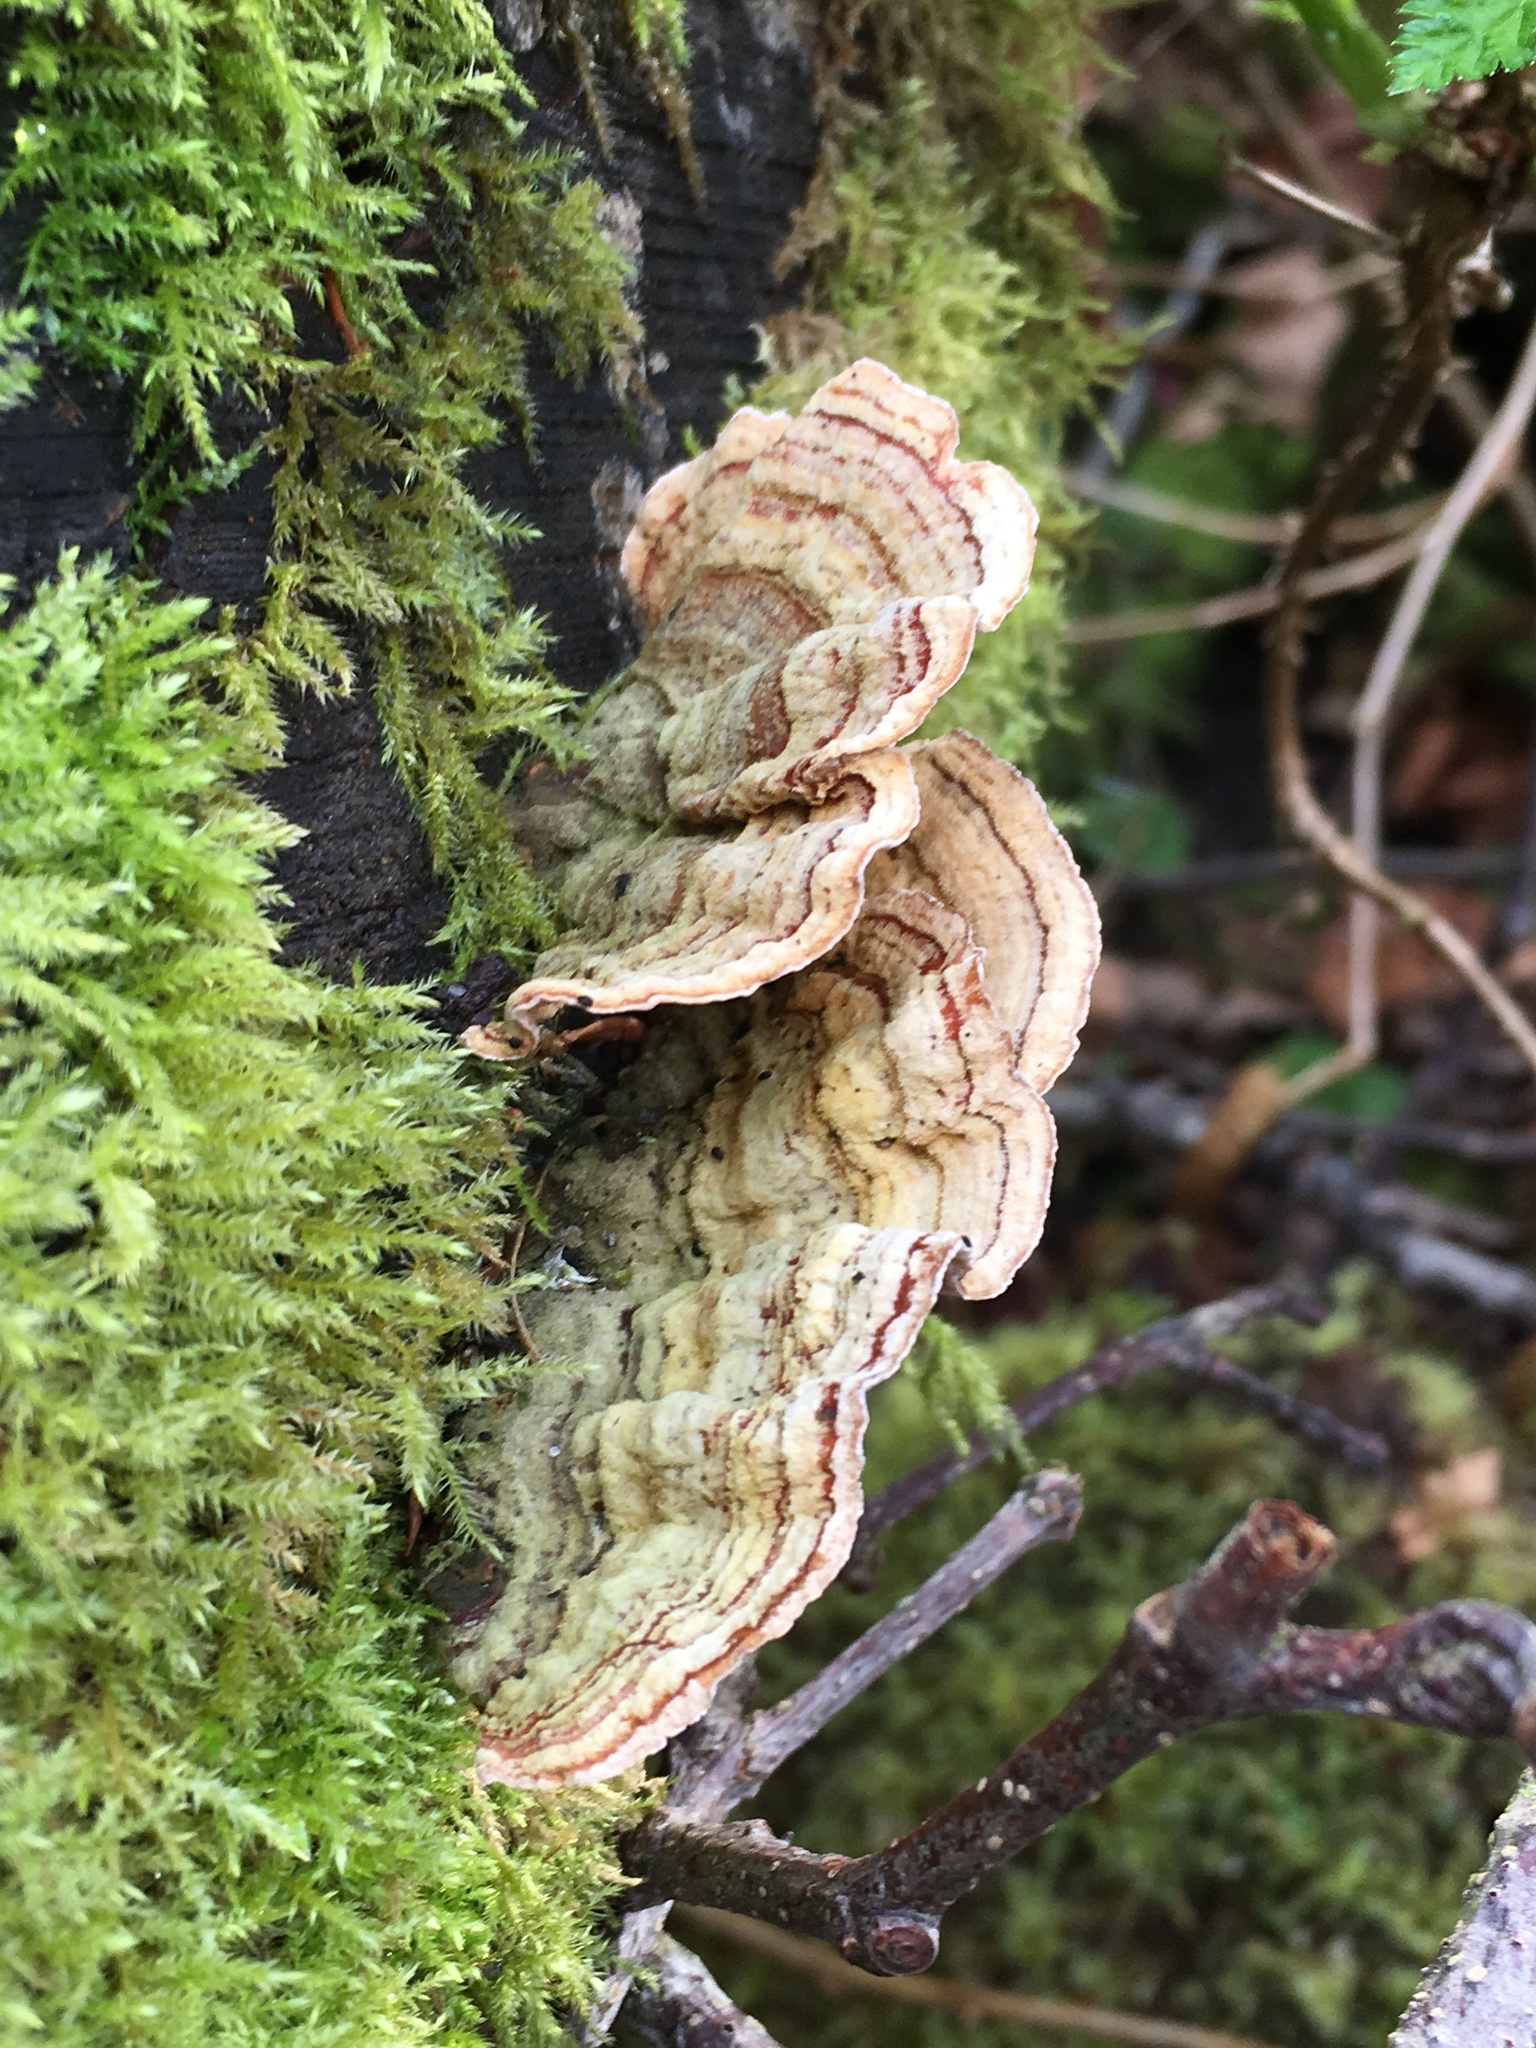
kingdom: Fungi
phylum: Basidiomycota
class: Agaricomycetes
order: Polyporales
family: Polyporaceae
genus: Trametes
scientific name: Trametes versicolor
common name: Turkeytail
